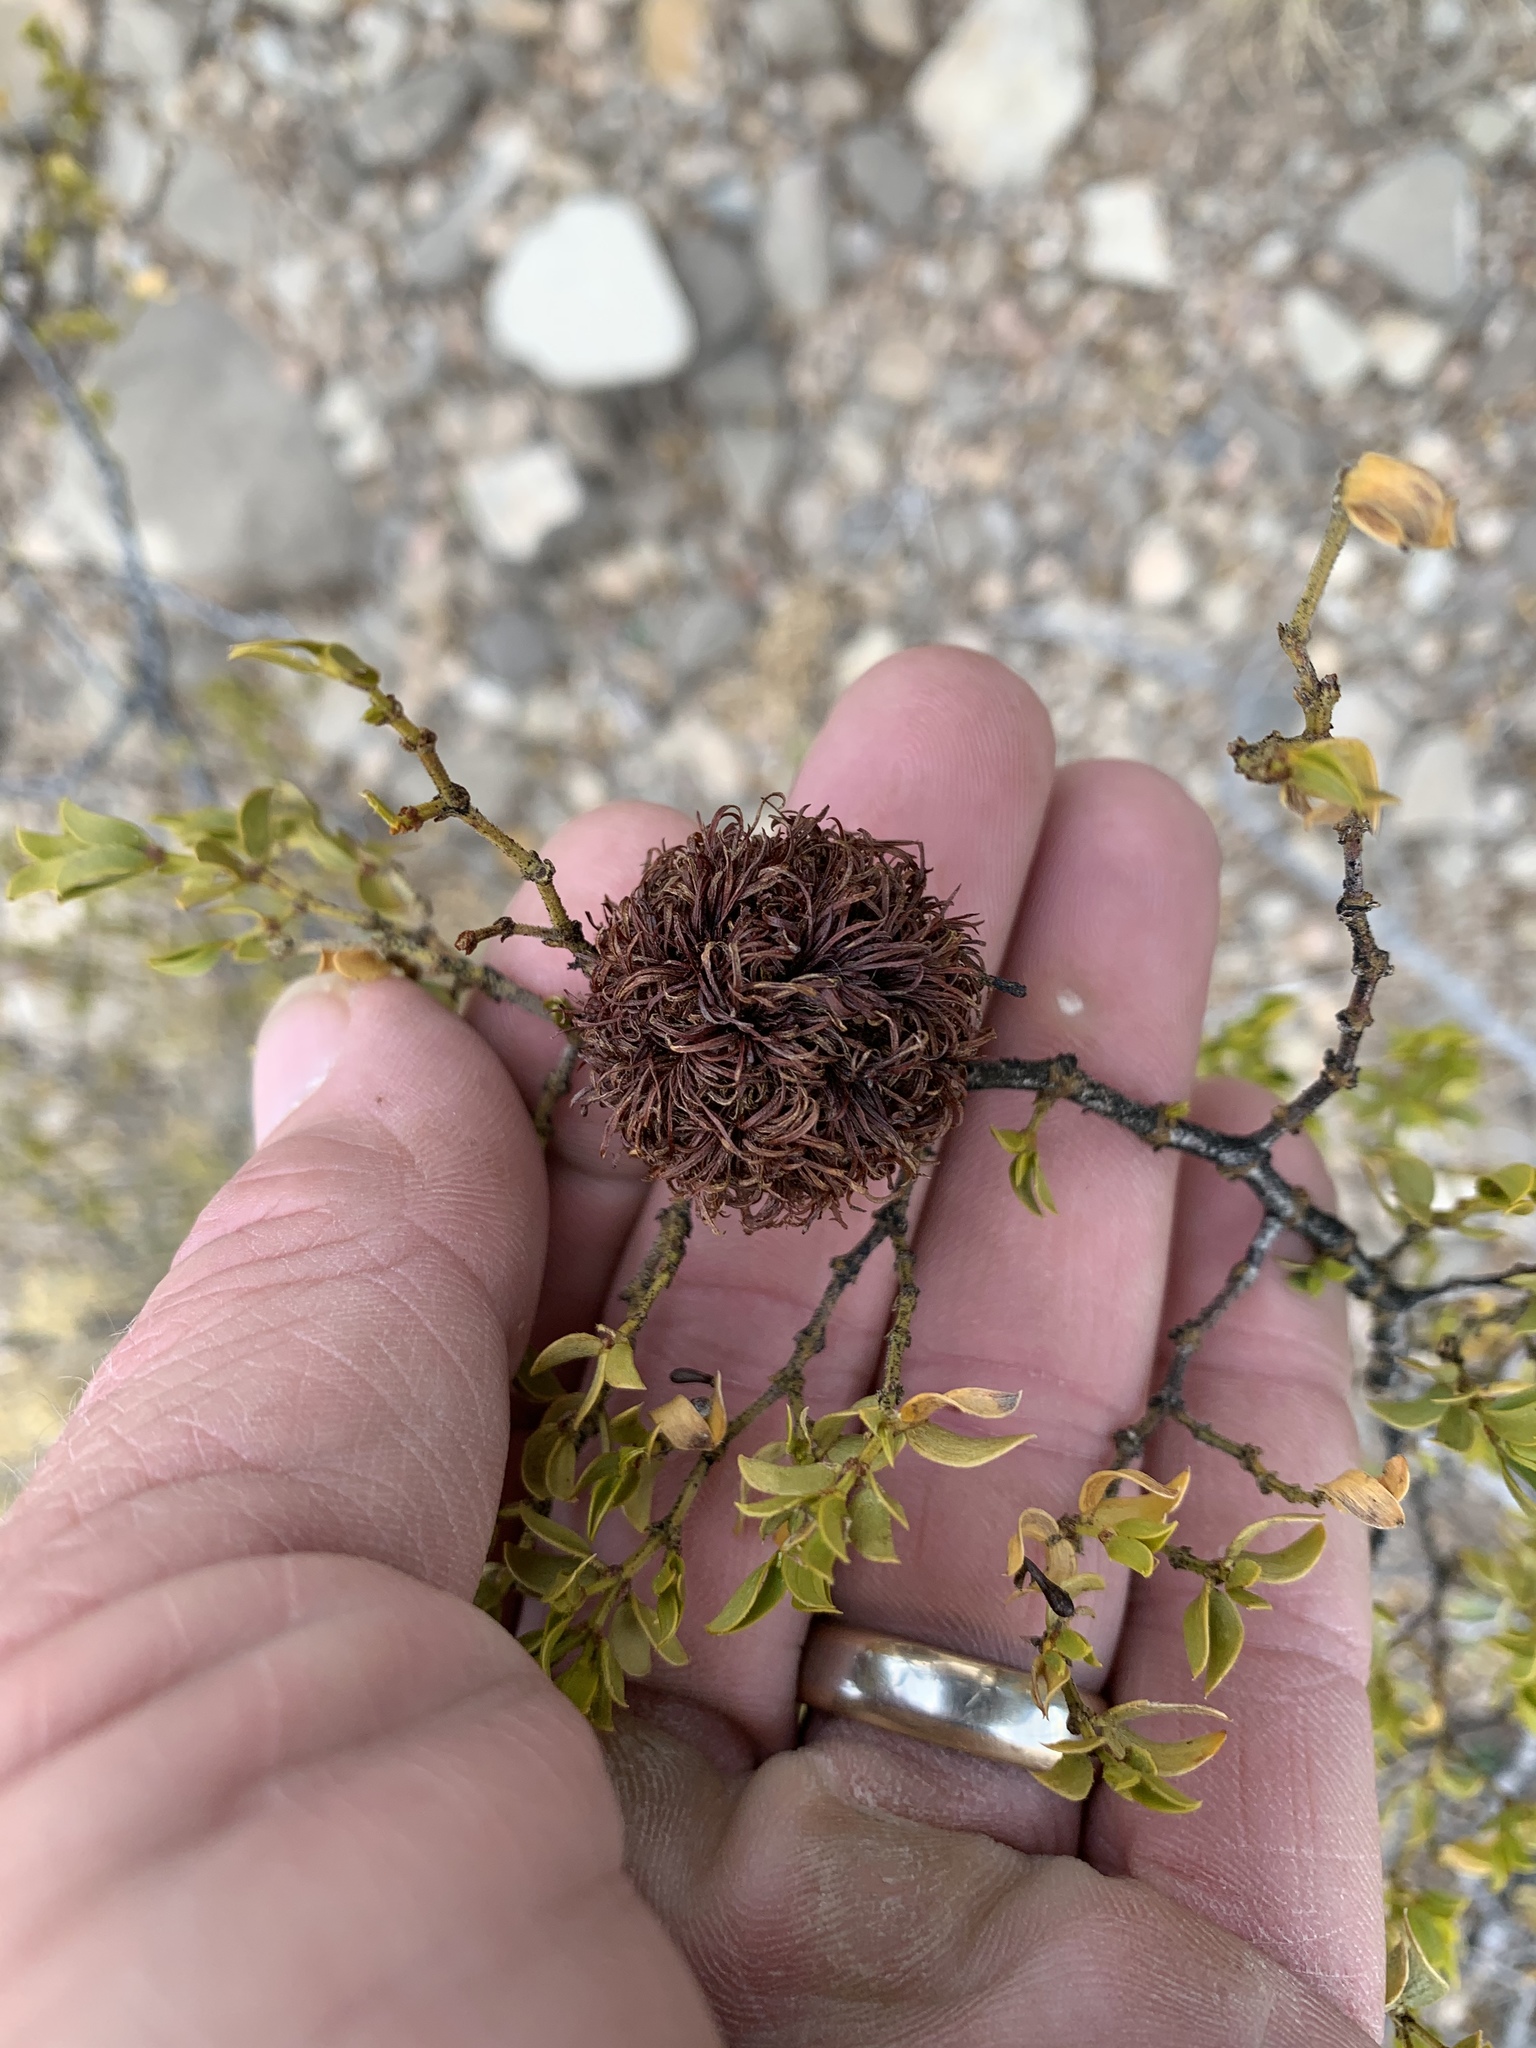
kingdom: Animalia
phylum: Arthropoda
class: Insecta
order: Diptera
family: Cecidomyiidae
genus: Asphondylia
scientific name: Asphondylia auripila
